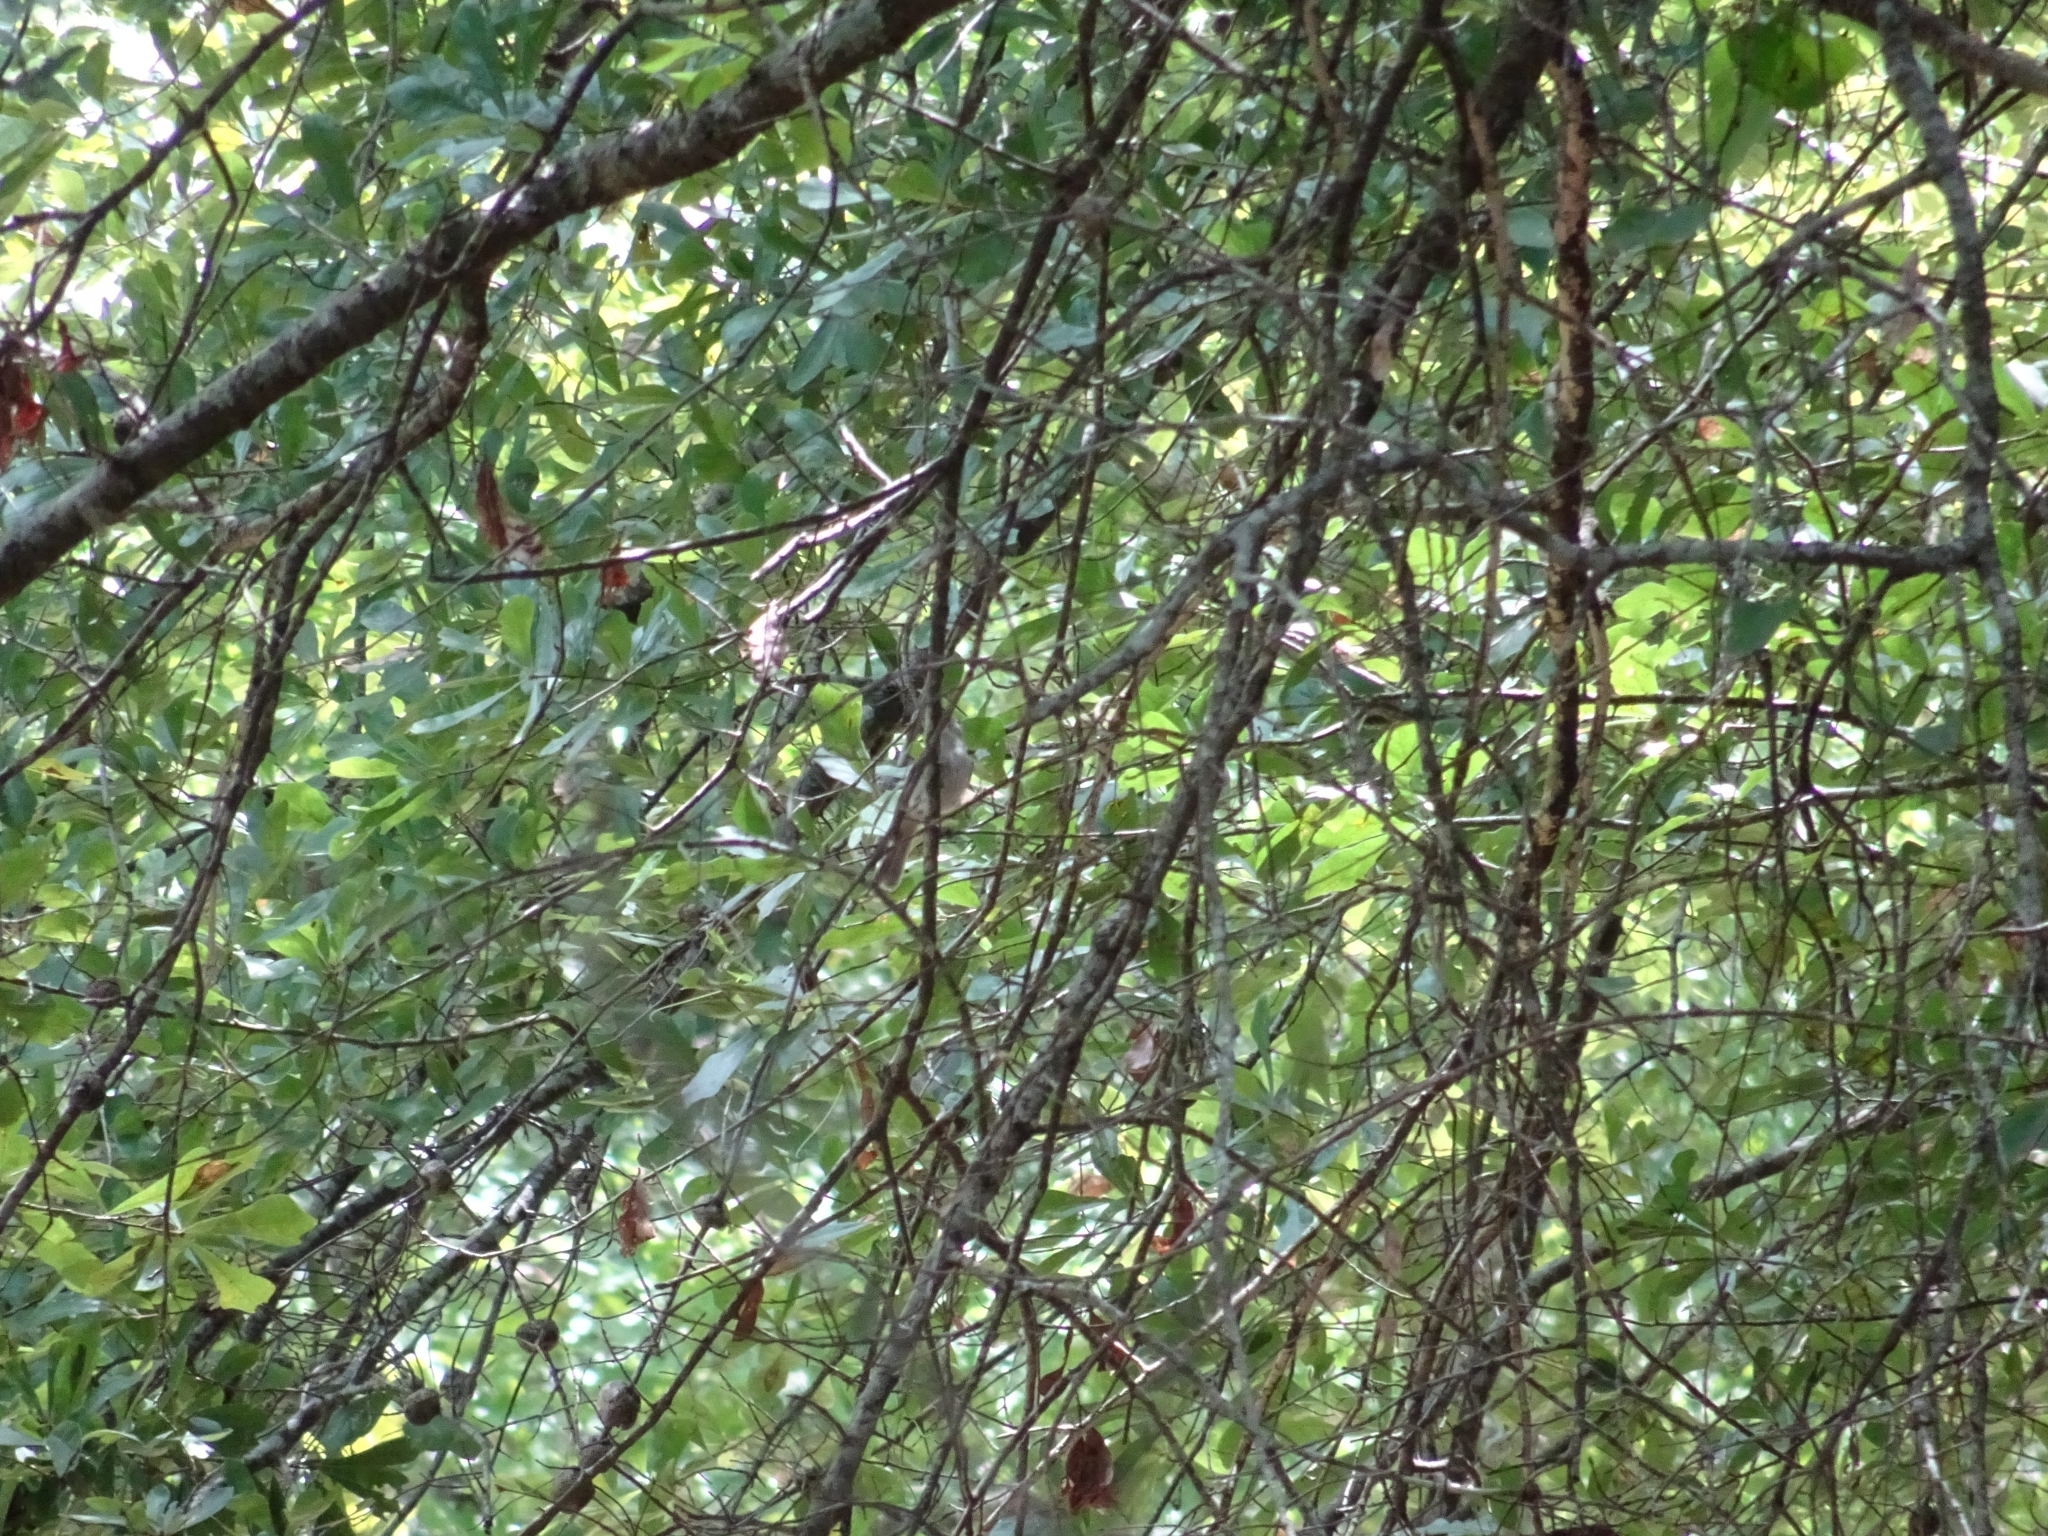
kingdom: Animalia
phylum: Chordata
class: Aves
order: Passeriformes
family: Paridae
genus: Baeolophus
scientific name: Baeolophus bicolor
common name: Tufted titmouse
